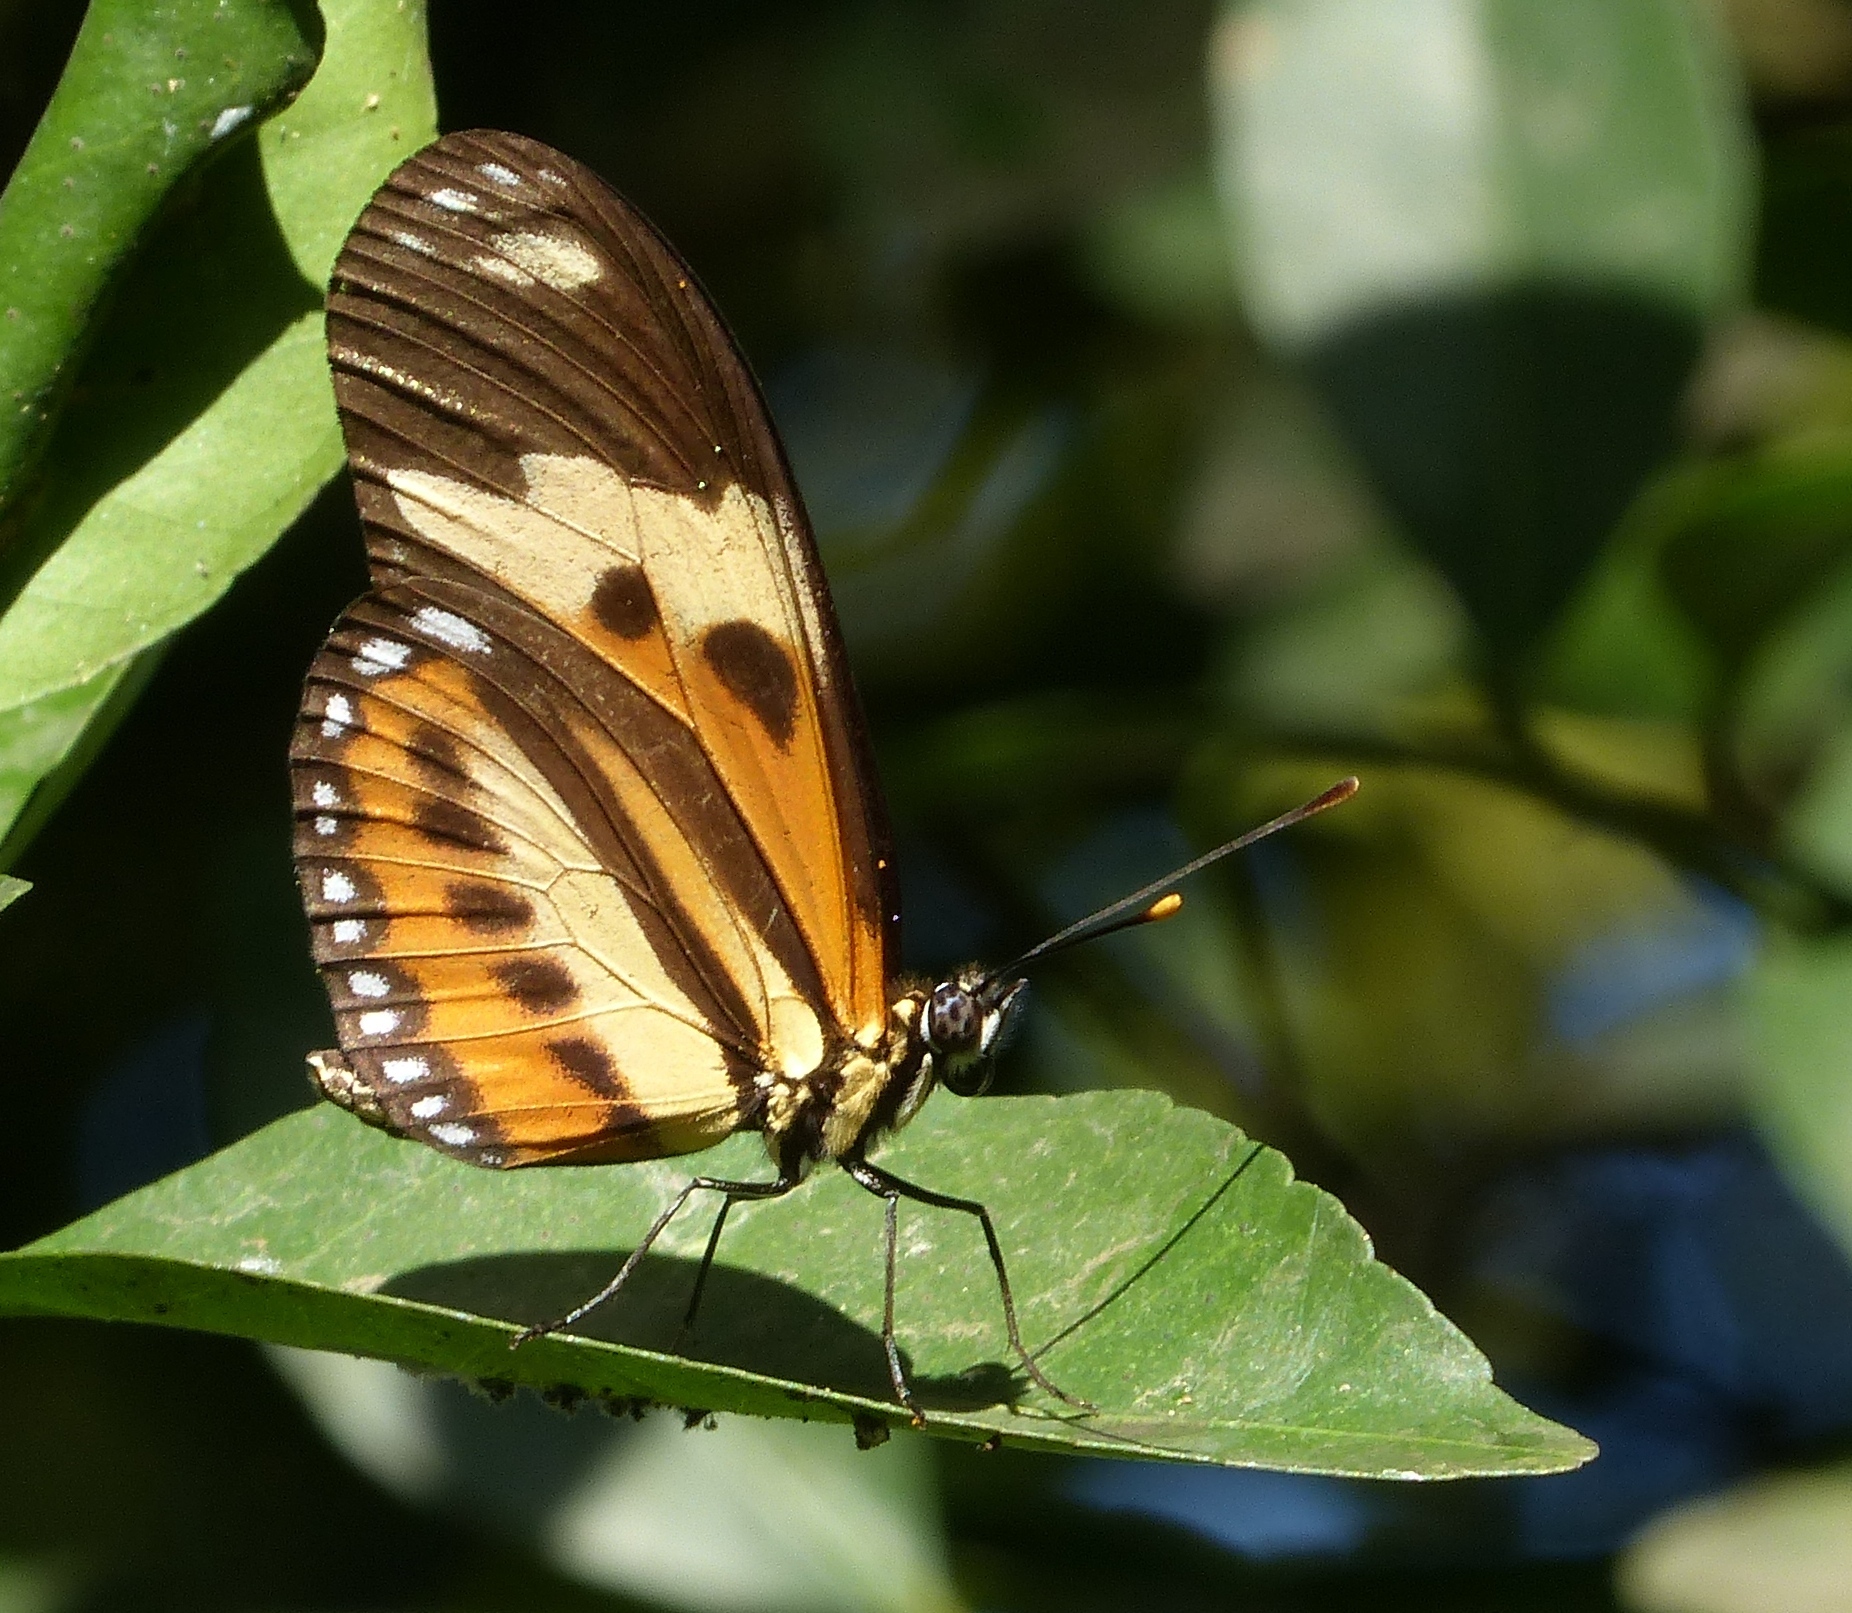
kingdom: Animalia
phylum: Arthropoda
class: Insecta
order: Lepidoptera
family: Nymphalidae
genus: Eueides
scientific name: Eueides isabella
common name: Isabella's longwing
